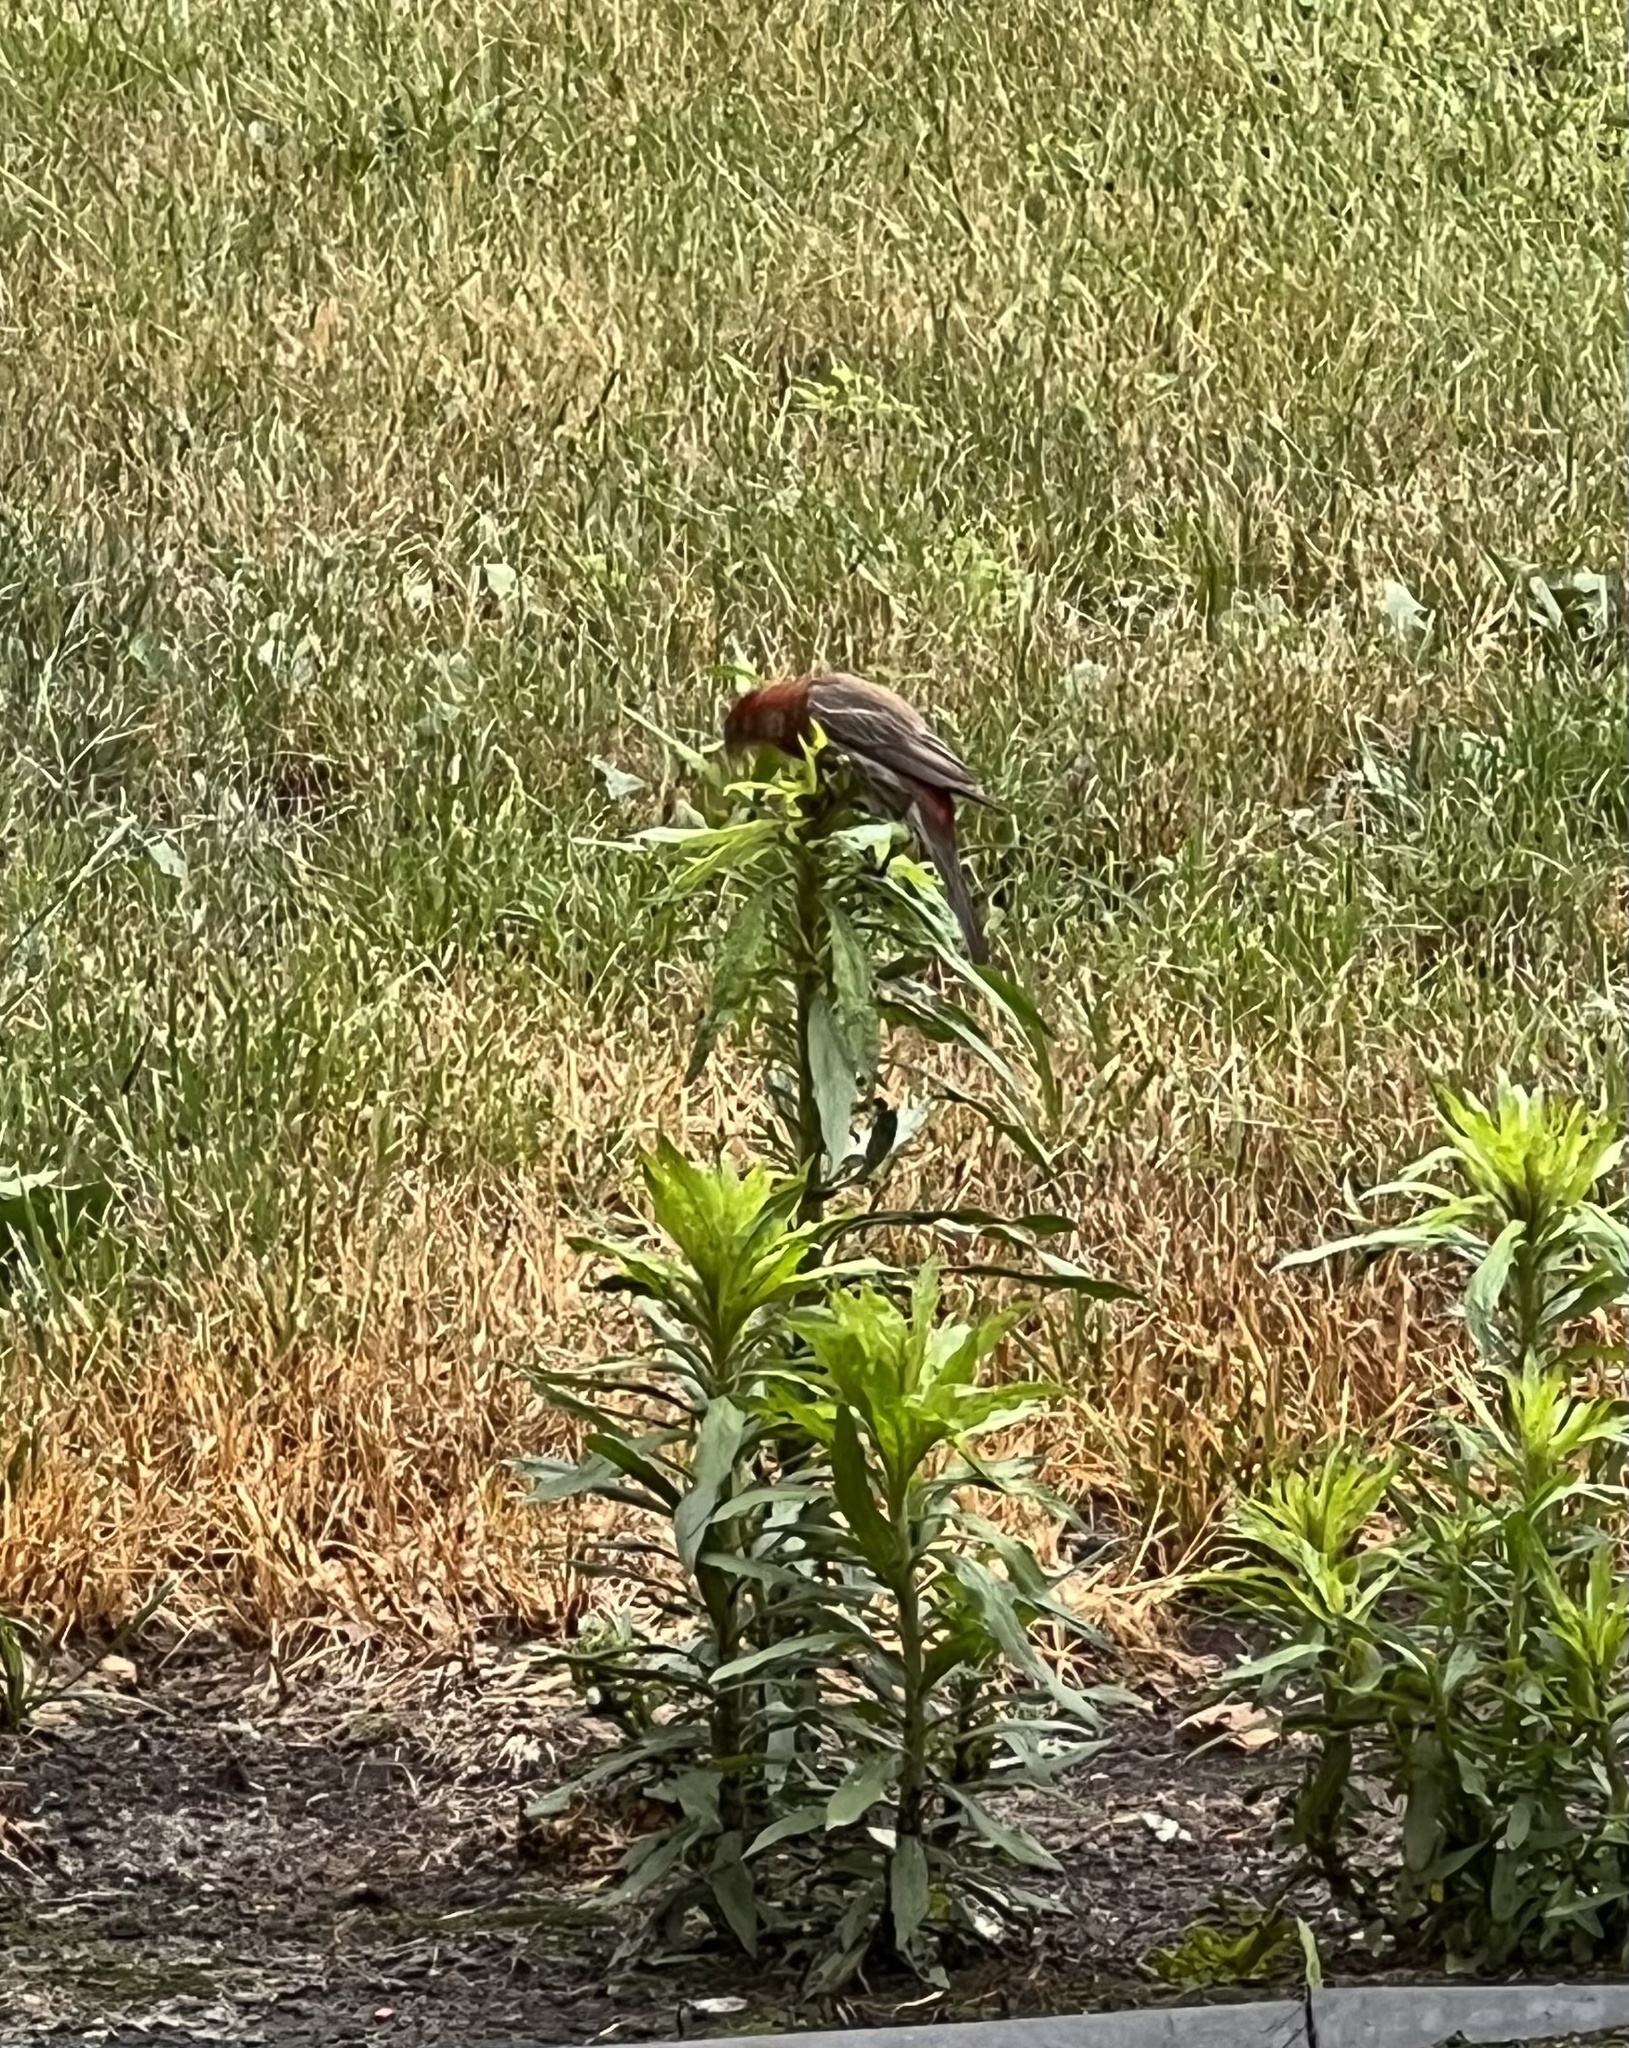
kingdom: Animalia
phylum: Chordata
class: Aves
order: Passeriformes
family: Fringillidae
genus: Haemorhous
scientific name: Haemorhous mexicanus
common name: House finch
